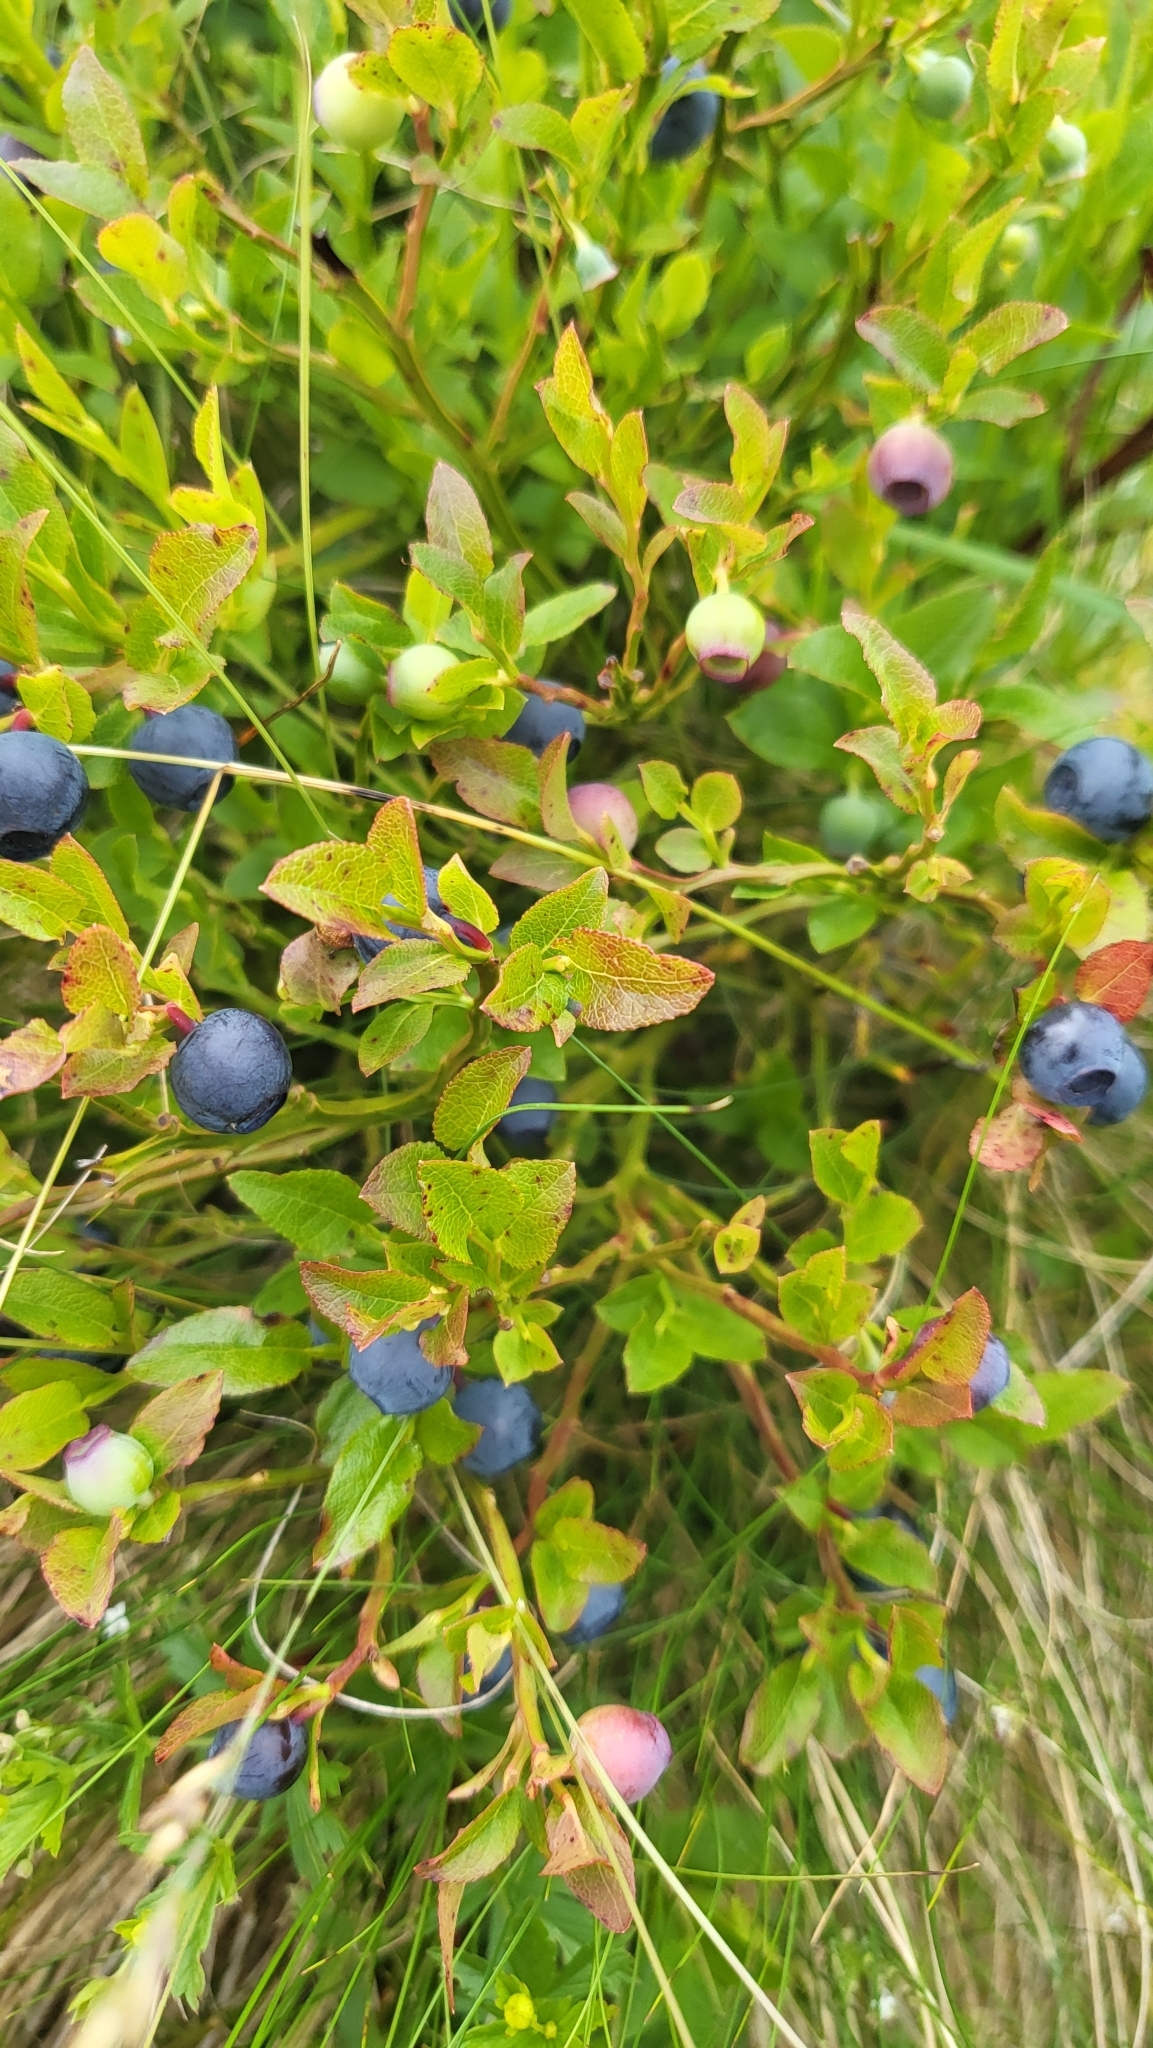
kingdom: Plantae
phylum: Tracheophyta
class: Magnoliopsida
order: Ericales
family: Ericaceae
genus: Vaccinium
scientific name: Vaccinium myrtillus
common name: Bilberry
